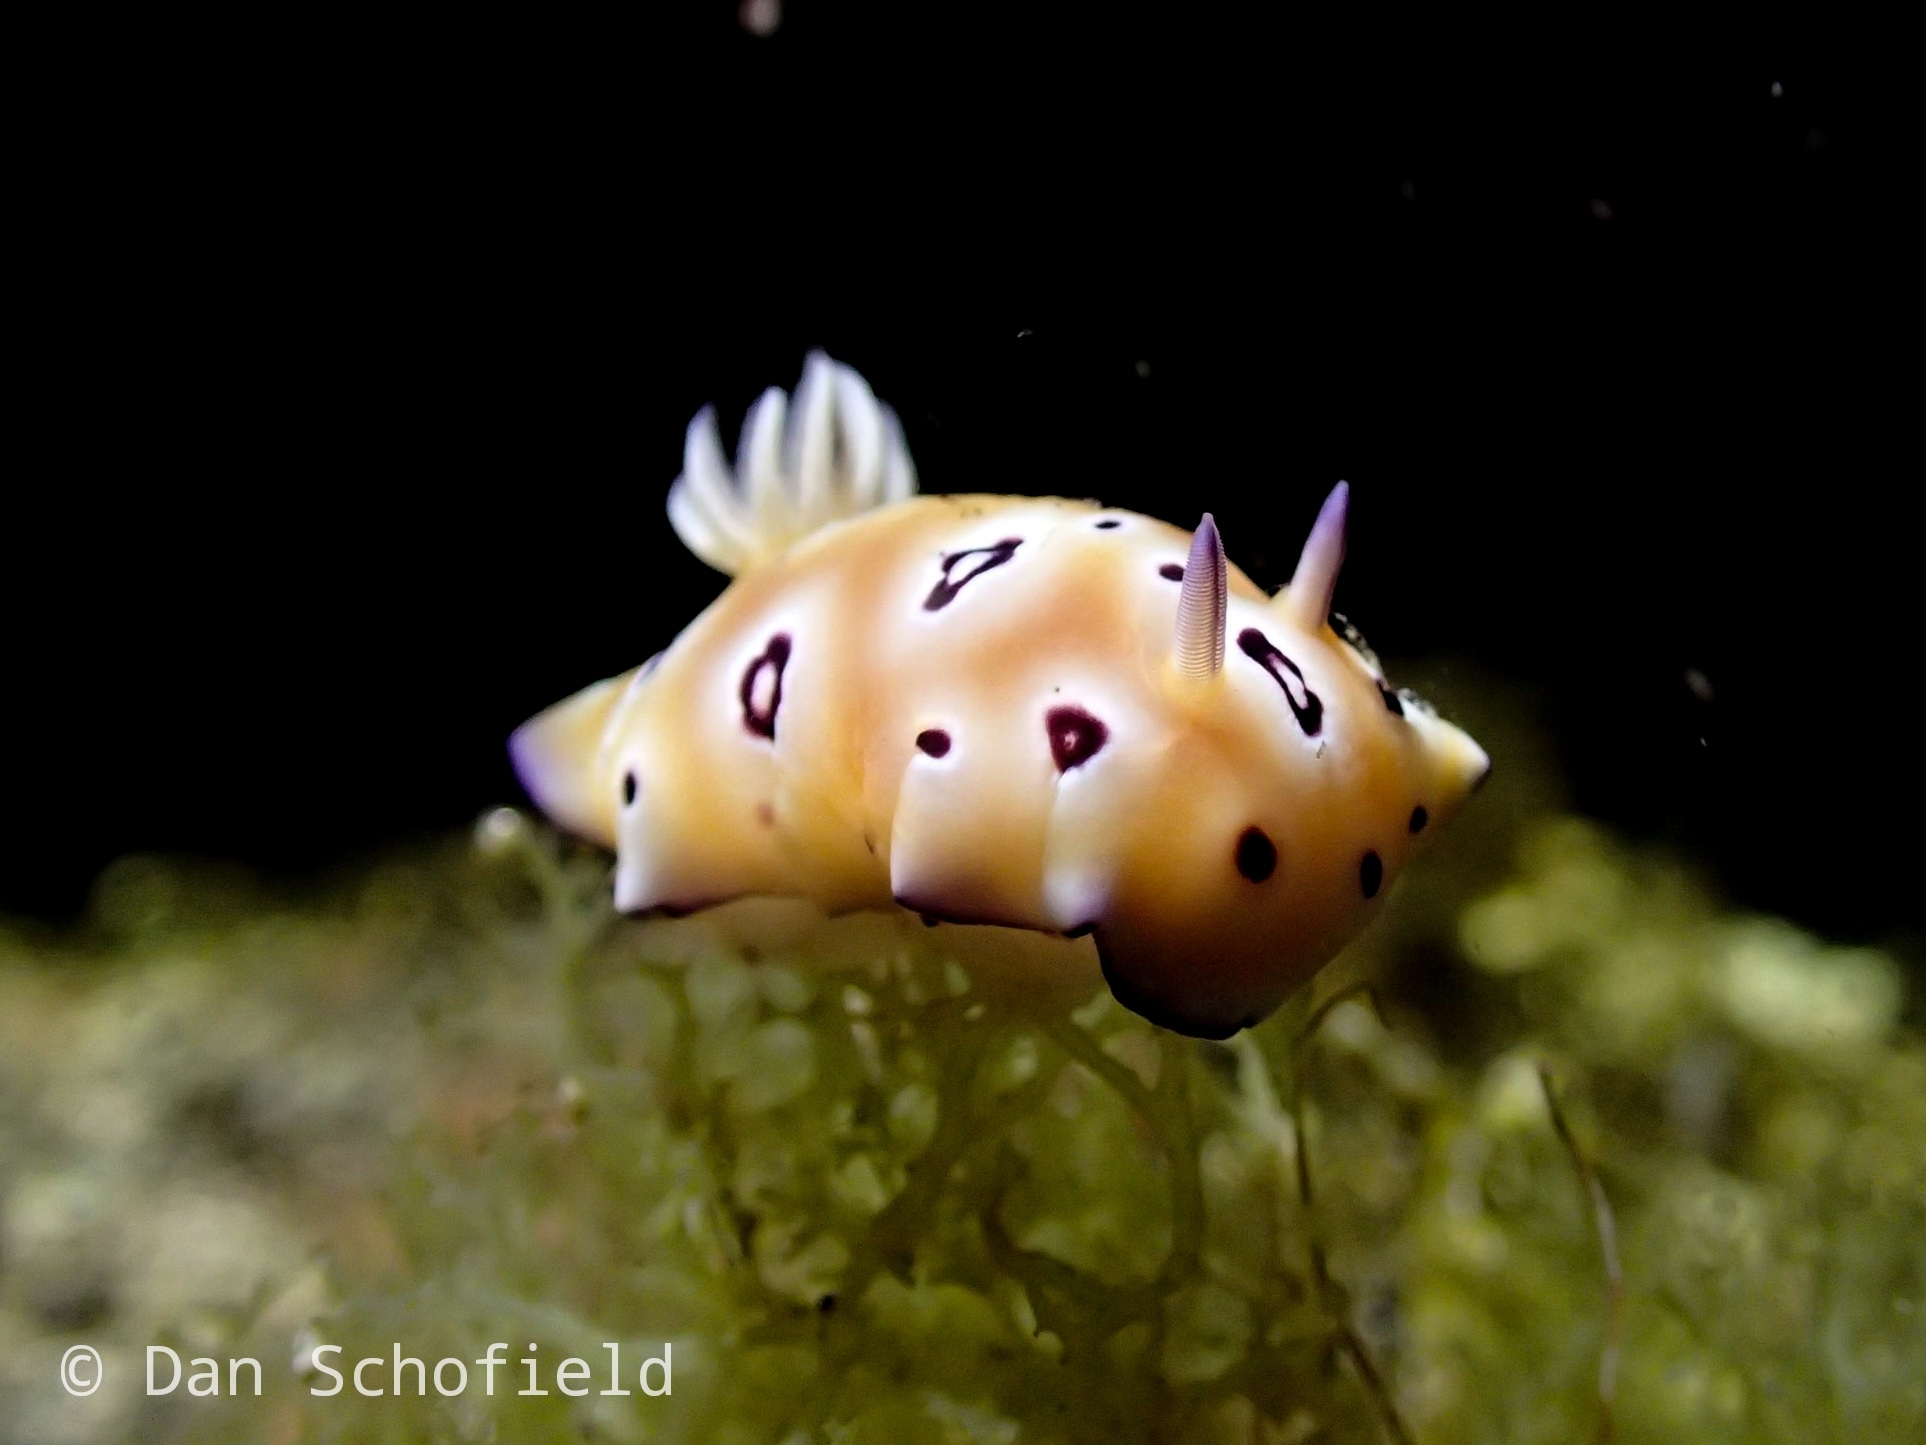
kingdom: Animalia
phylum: Mollusca
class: Gastropoda
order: Nudibranchia
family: Chromodorididae
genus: Goniobranchus
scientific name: Goniobranchus leopardus
